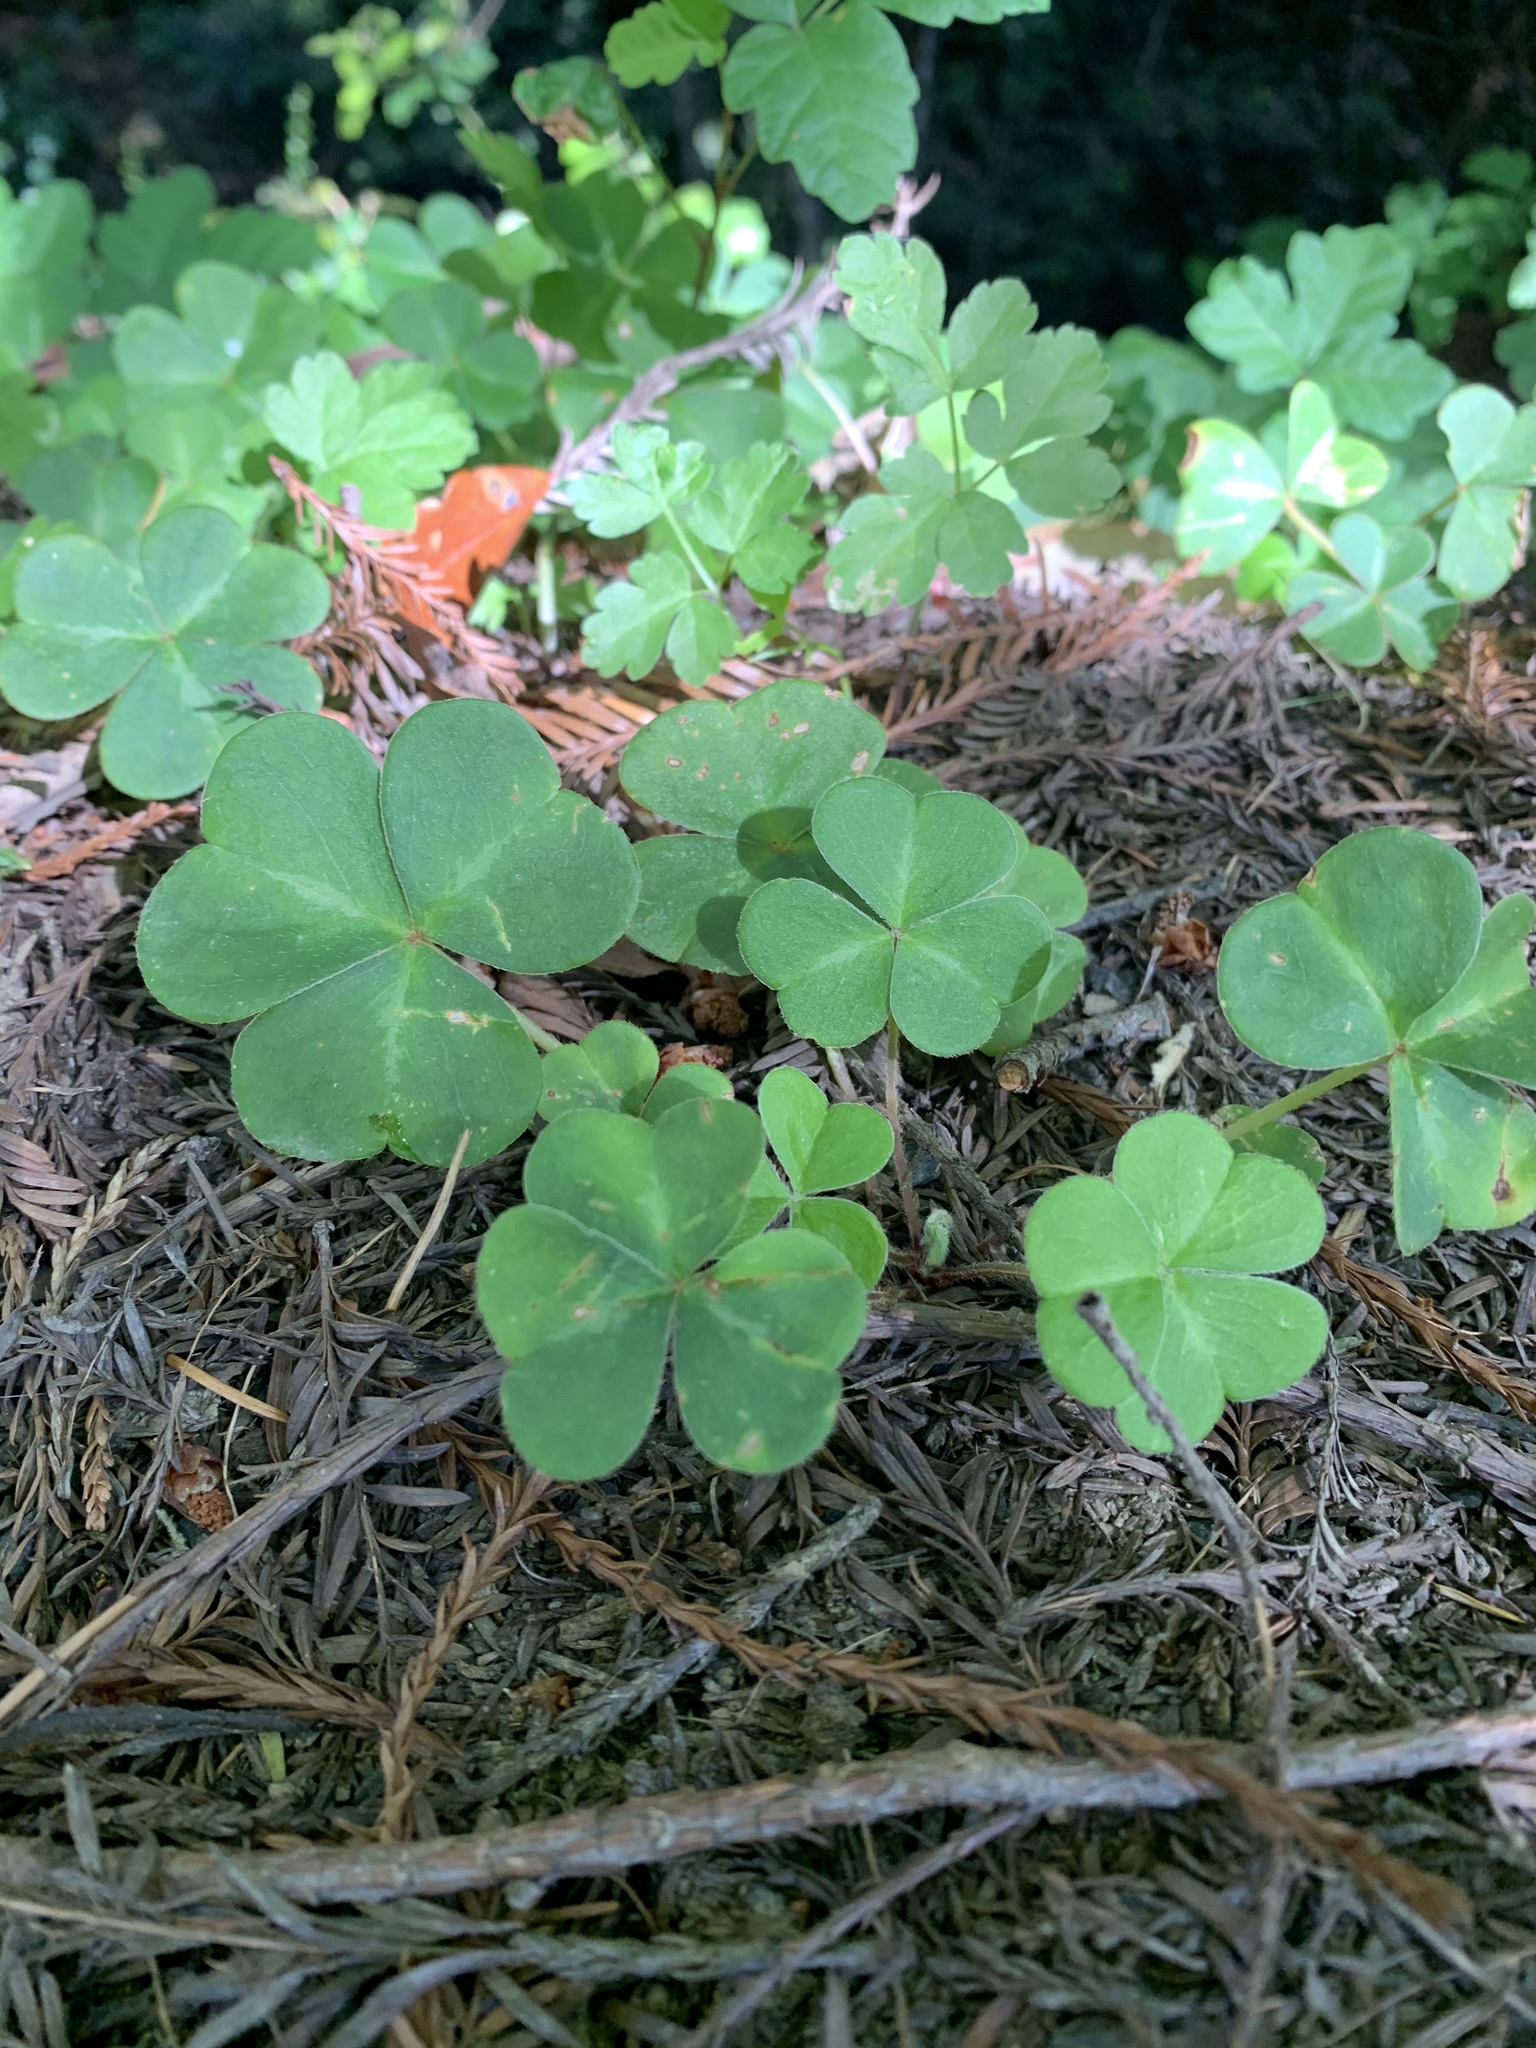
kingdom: Plantae
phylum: Tracheophyta
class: Magnoliopsida
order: Oxalidales
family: Oxalidaceae
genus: Oxalis
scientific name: Oxalis oregana
